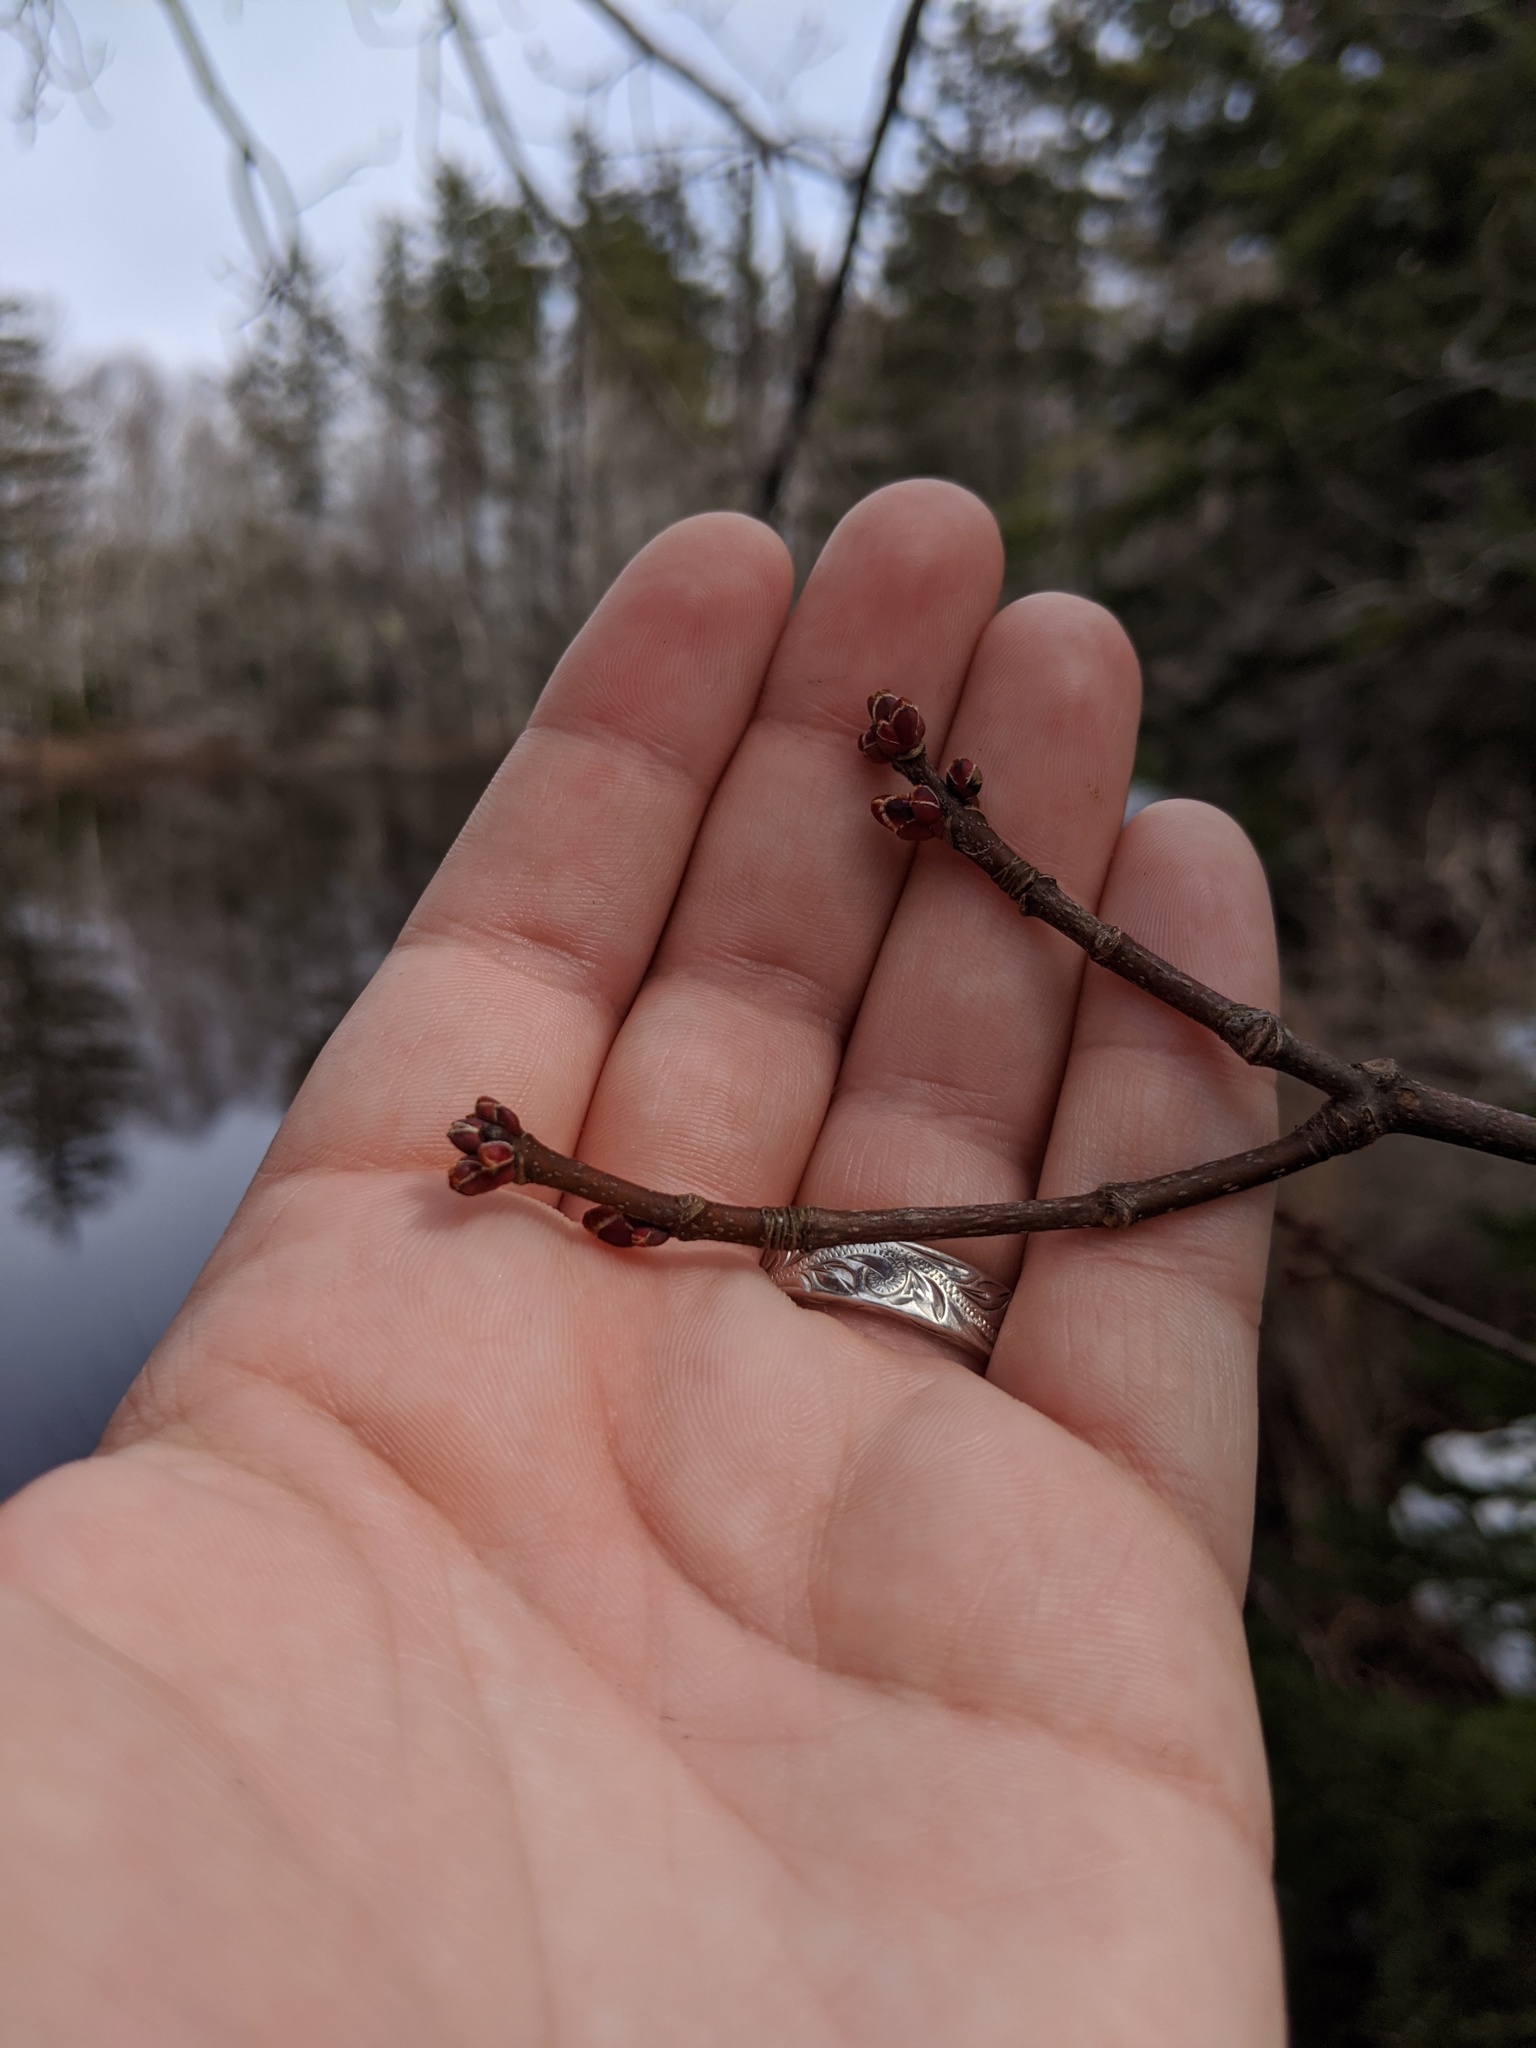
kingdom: Plantae
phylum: Tracheophyta
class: Magnoliopsida
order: Sapindales
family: Sapindaceae
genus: Acer
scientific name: Acer rubrum
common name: Red maple
